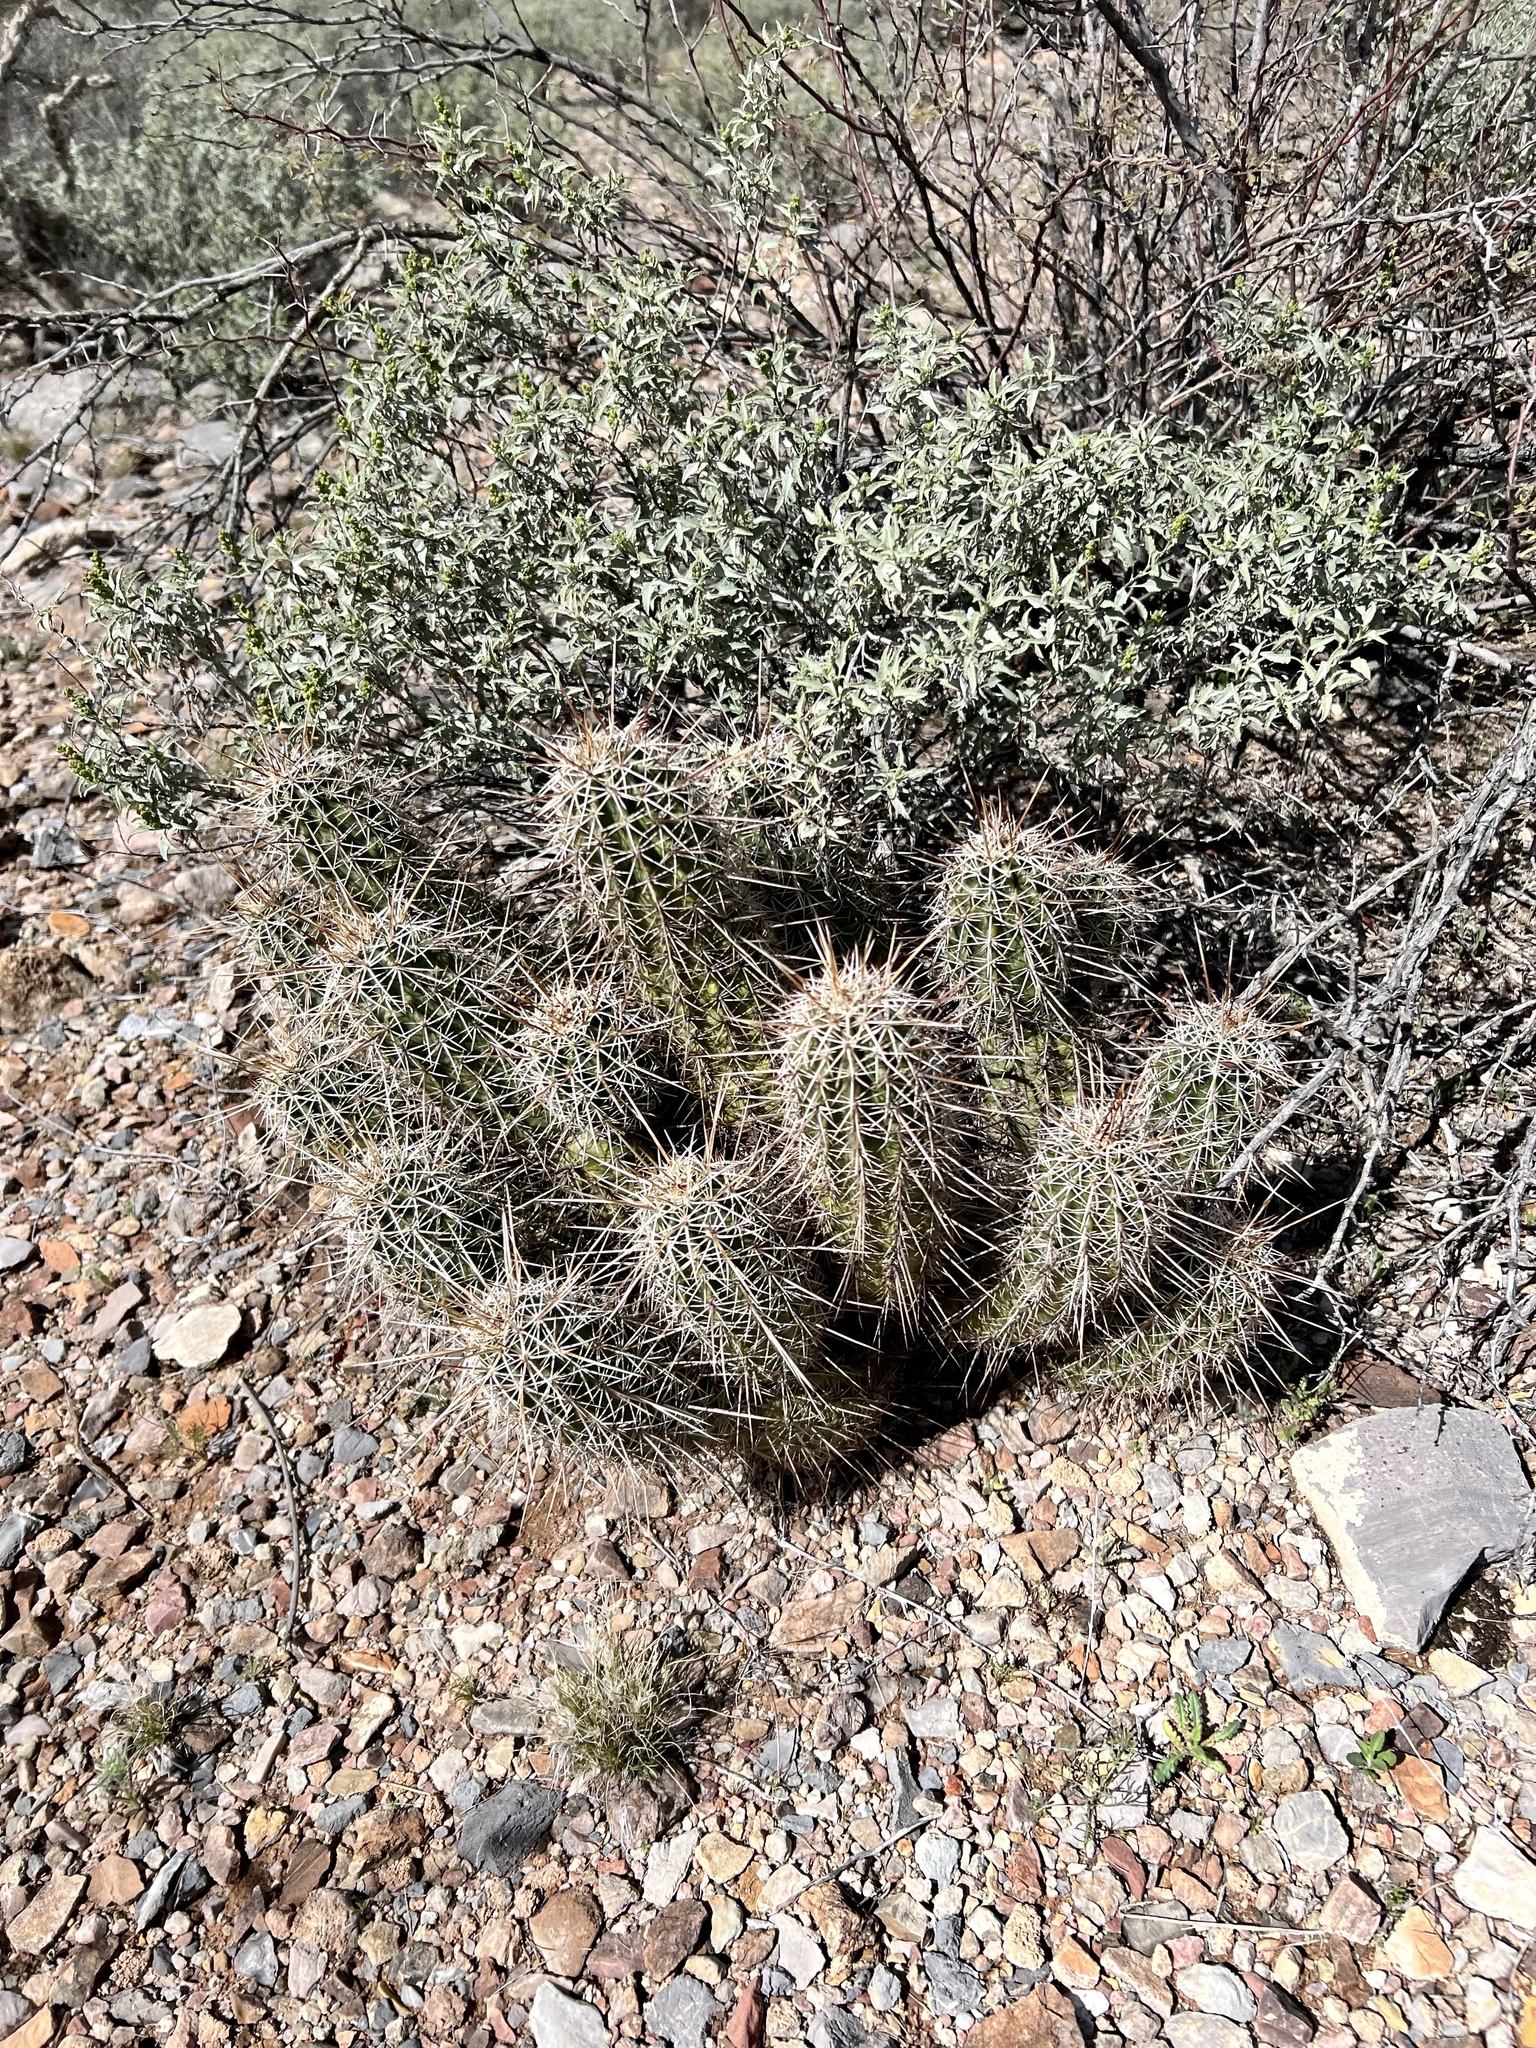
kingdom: Plantae
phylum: Tracheophyta
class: Magnoliopsida
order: Caryophyllales
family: Cactaceae
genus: Echinocereus
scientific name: Echinocereus fasciculatus
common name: Bundle hedgehog
